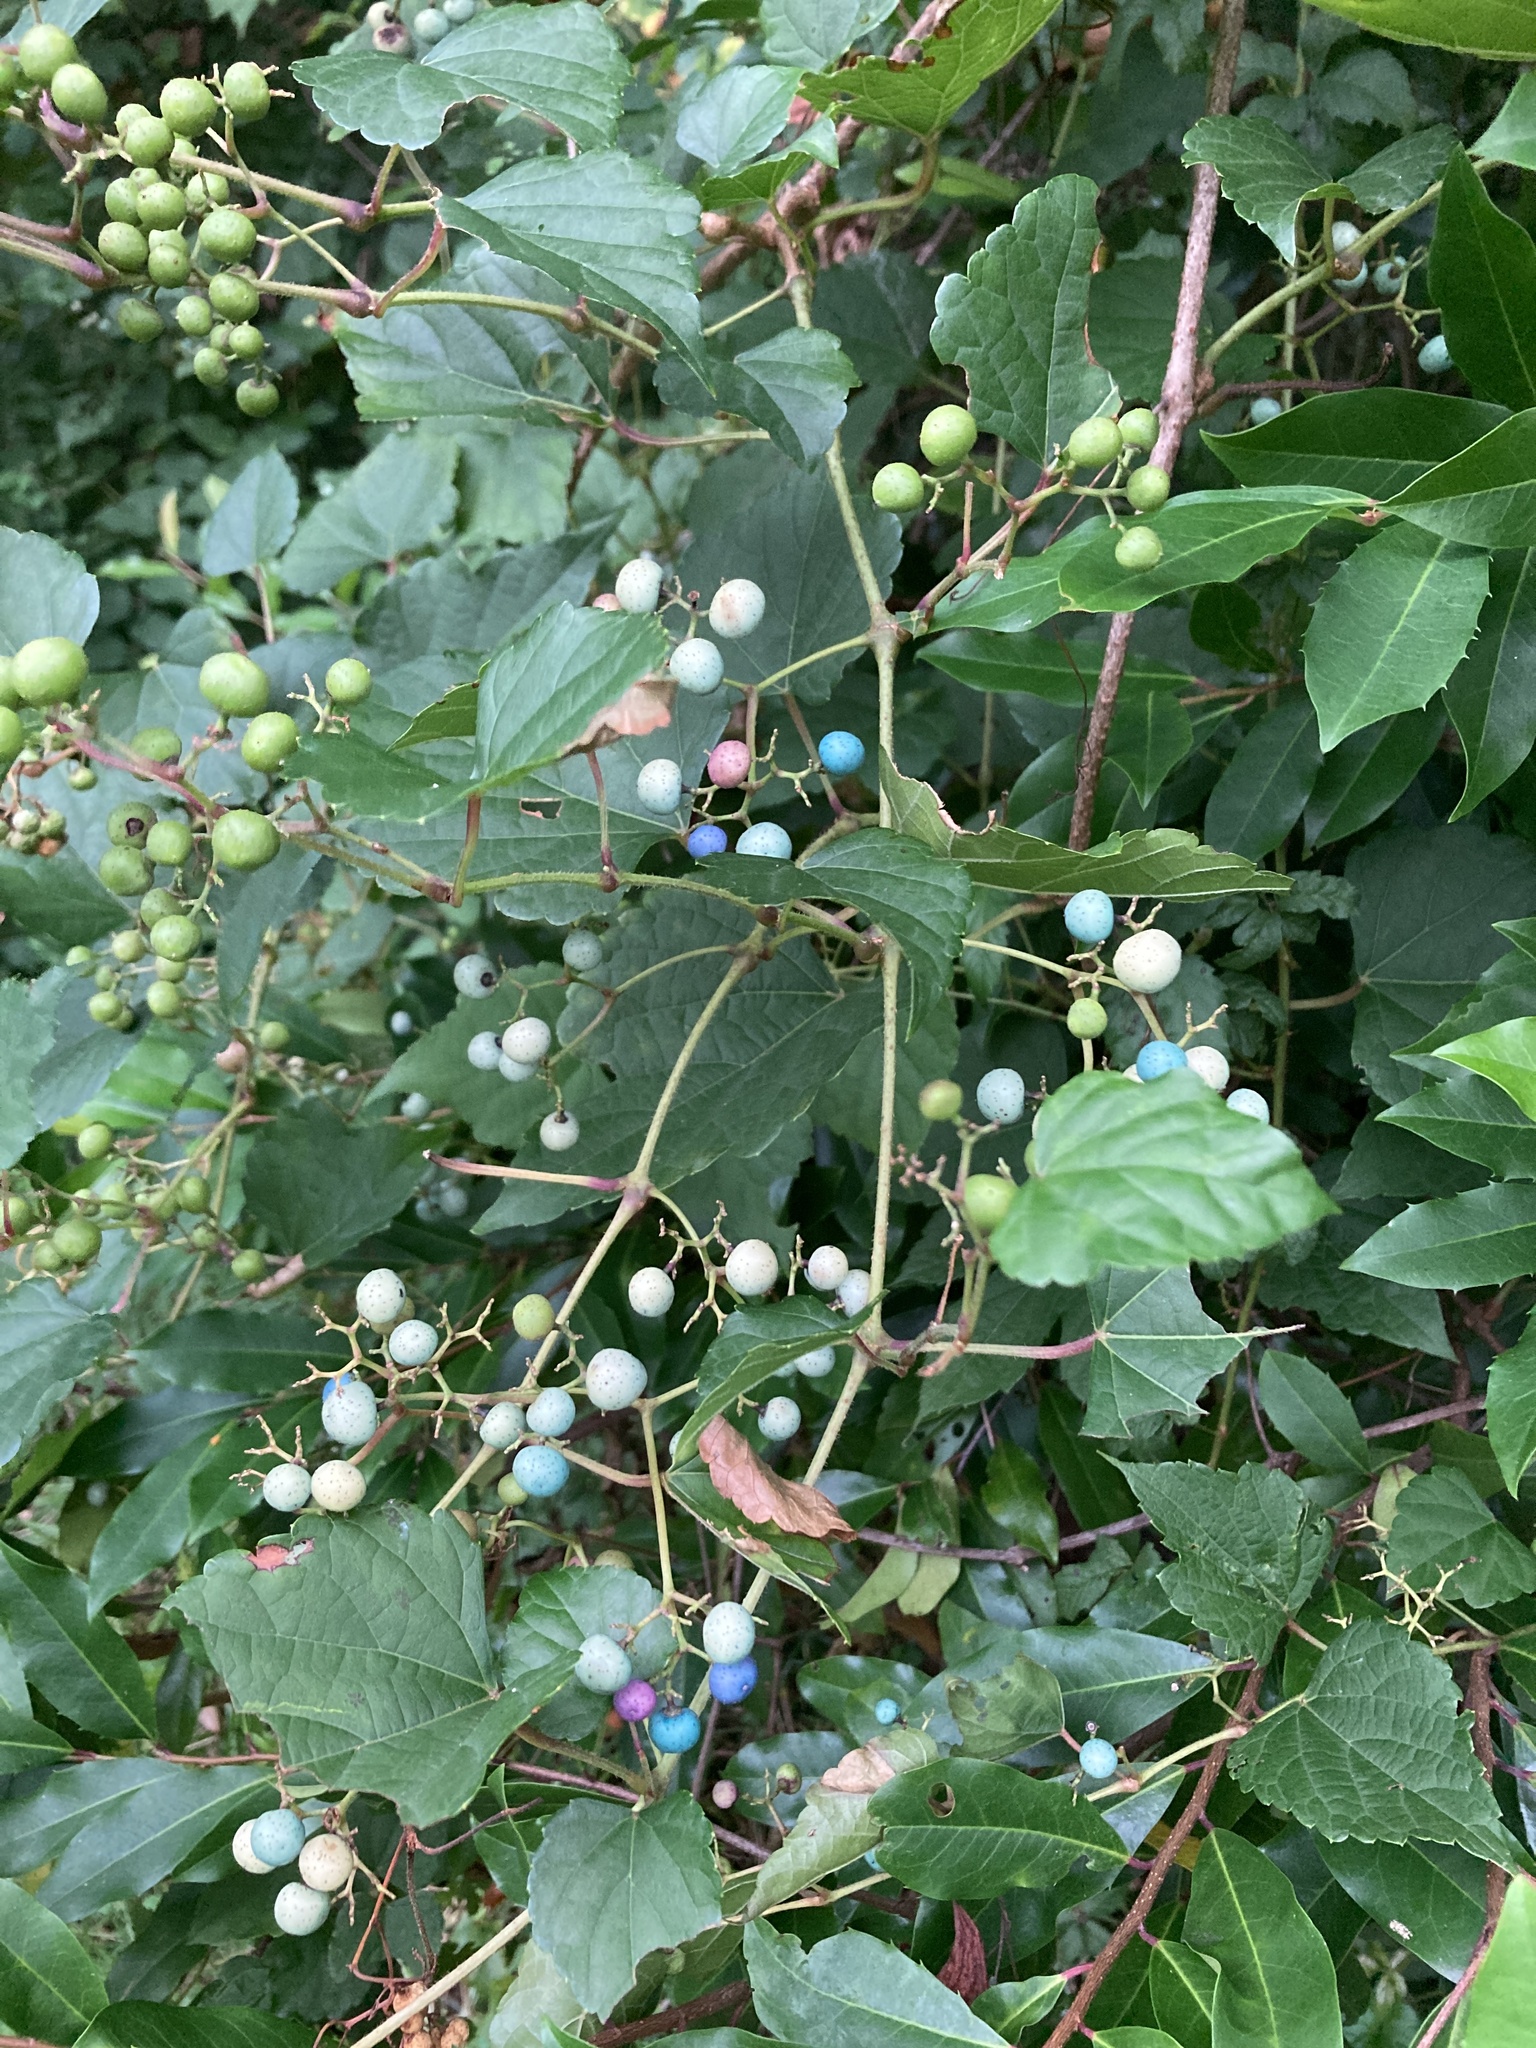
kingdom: Plantae
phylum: Tracheophyta
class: Magnoliopsida
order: Vitales
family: Vitaceae
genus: Ampelopsis
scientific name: Ampelopsis glandulosa
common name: Amur peppervine
